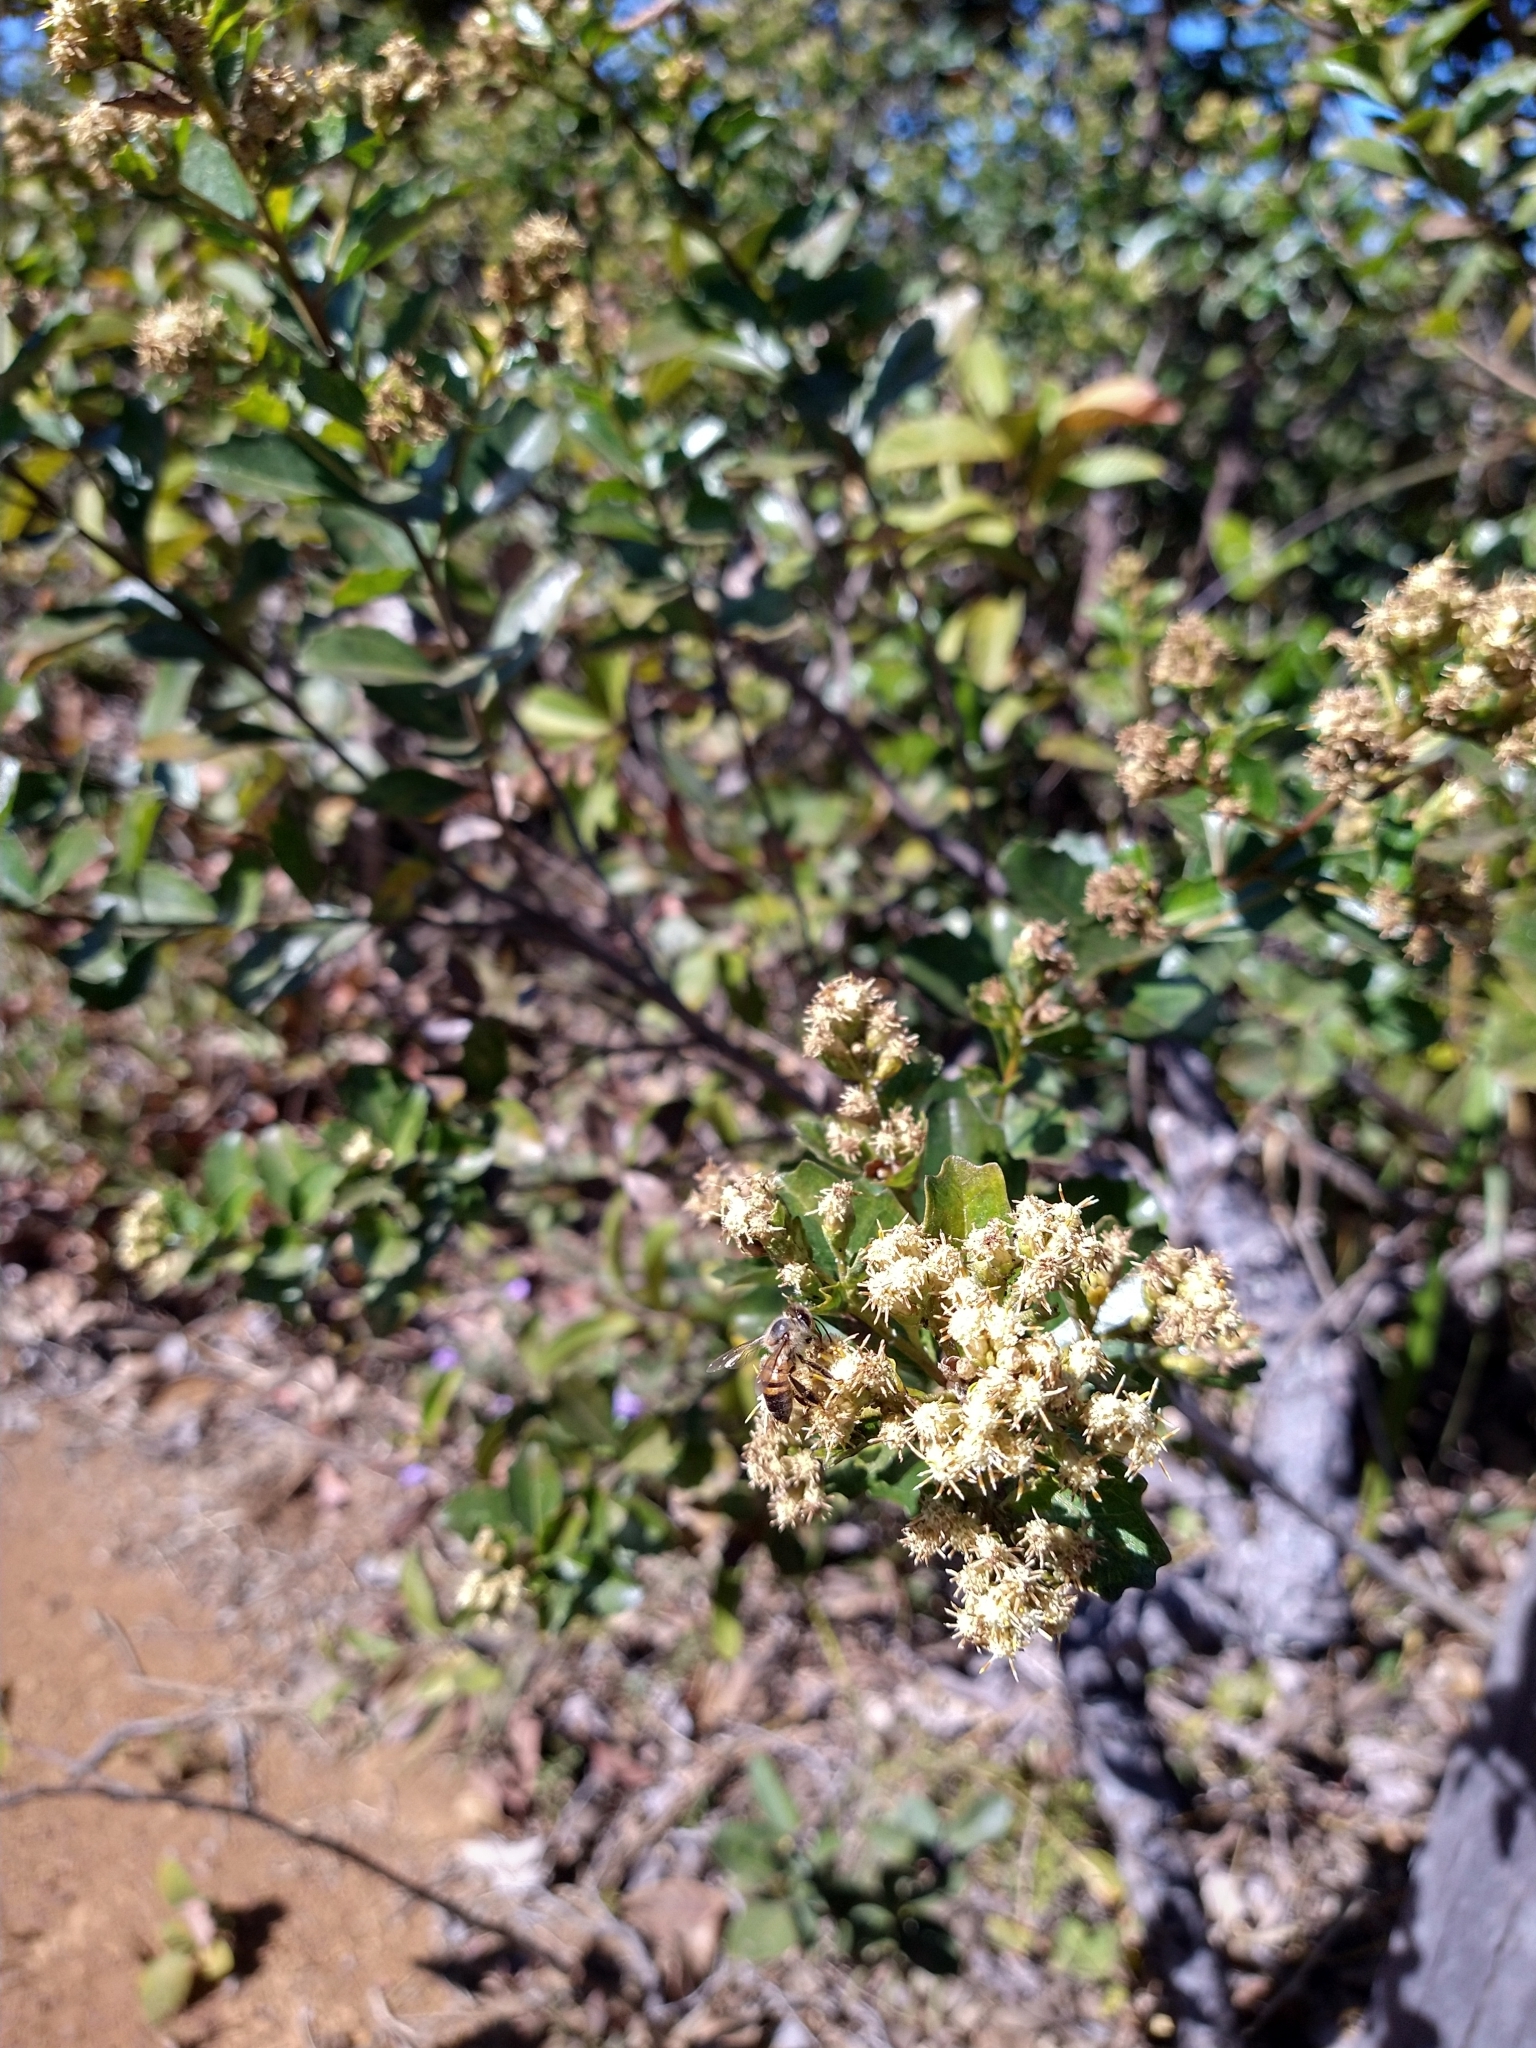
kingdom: Animalia
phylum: Arthropoda
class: Insecta
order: Hymenoptera
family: Apidae
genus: Apis
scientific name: Apis mellifera
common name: Honey bee
